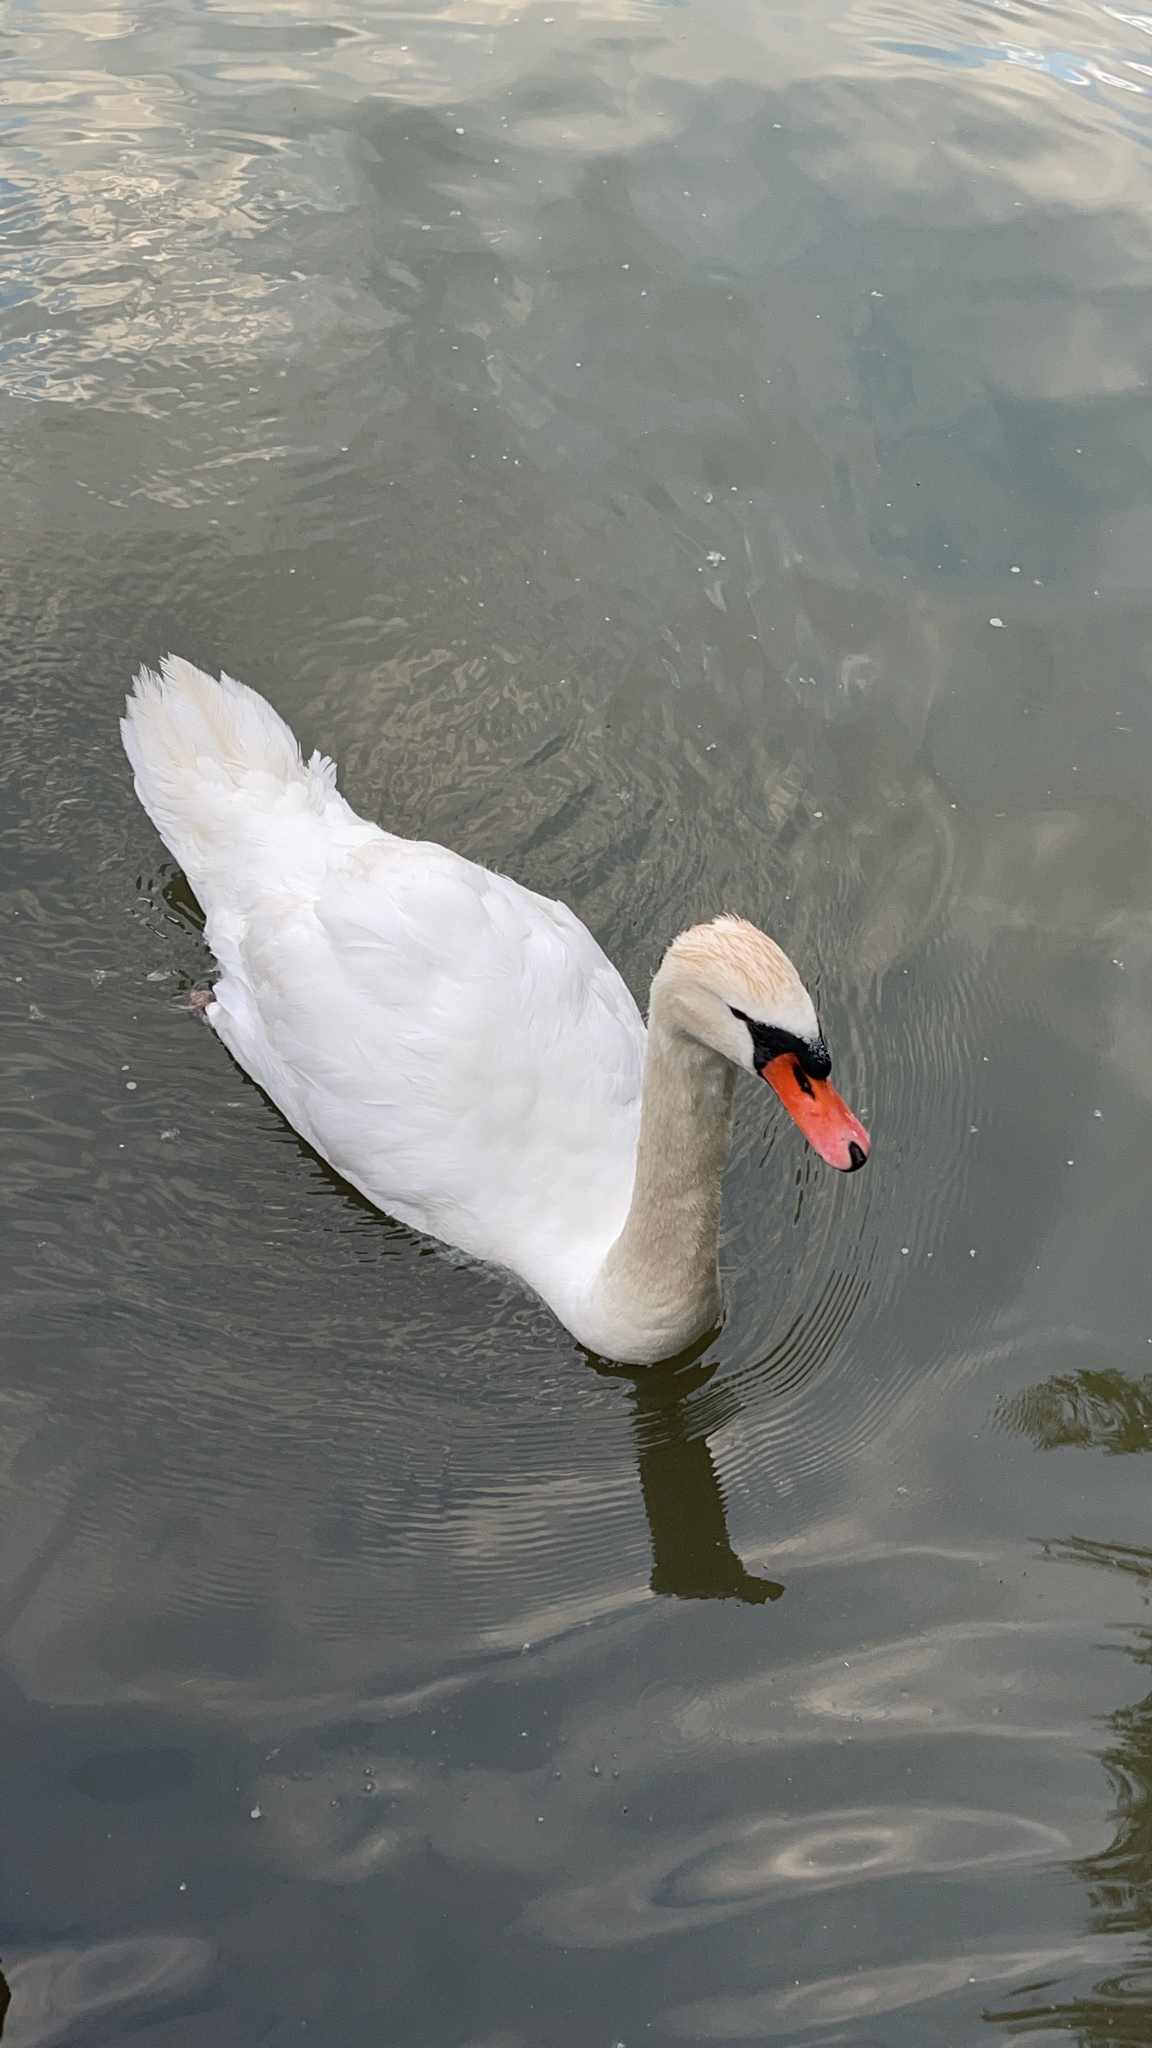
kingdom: Animalia
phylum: Chordata
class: Aves
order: Anseriformes
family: Anatidae
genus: Cygnus
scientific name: Cygnus olor
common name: Mute swan
